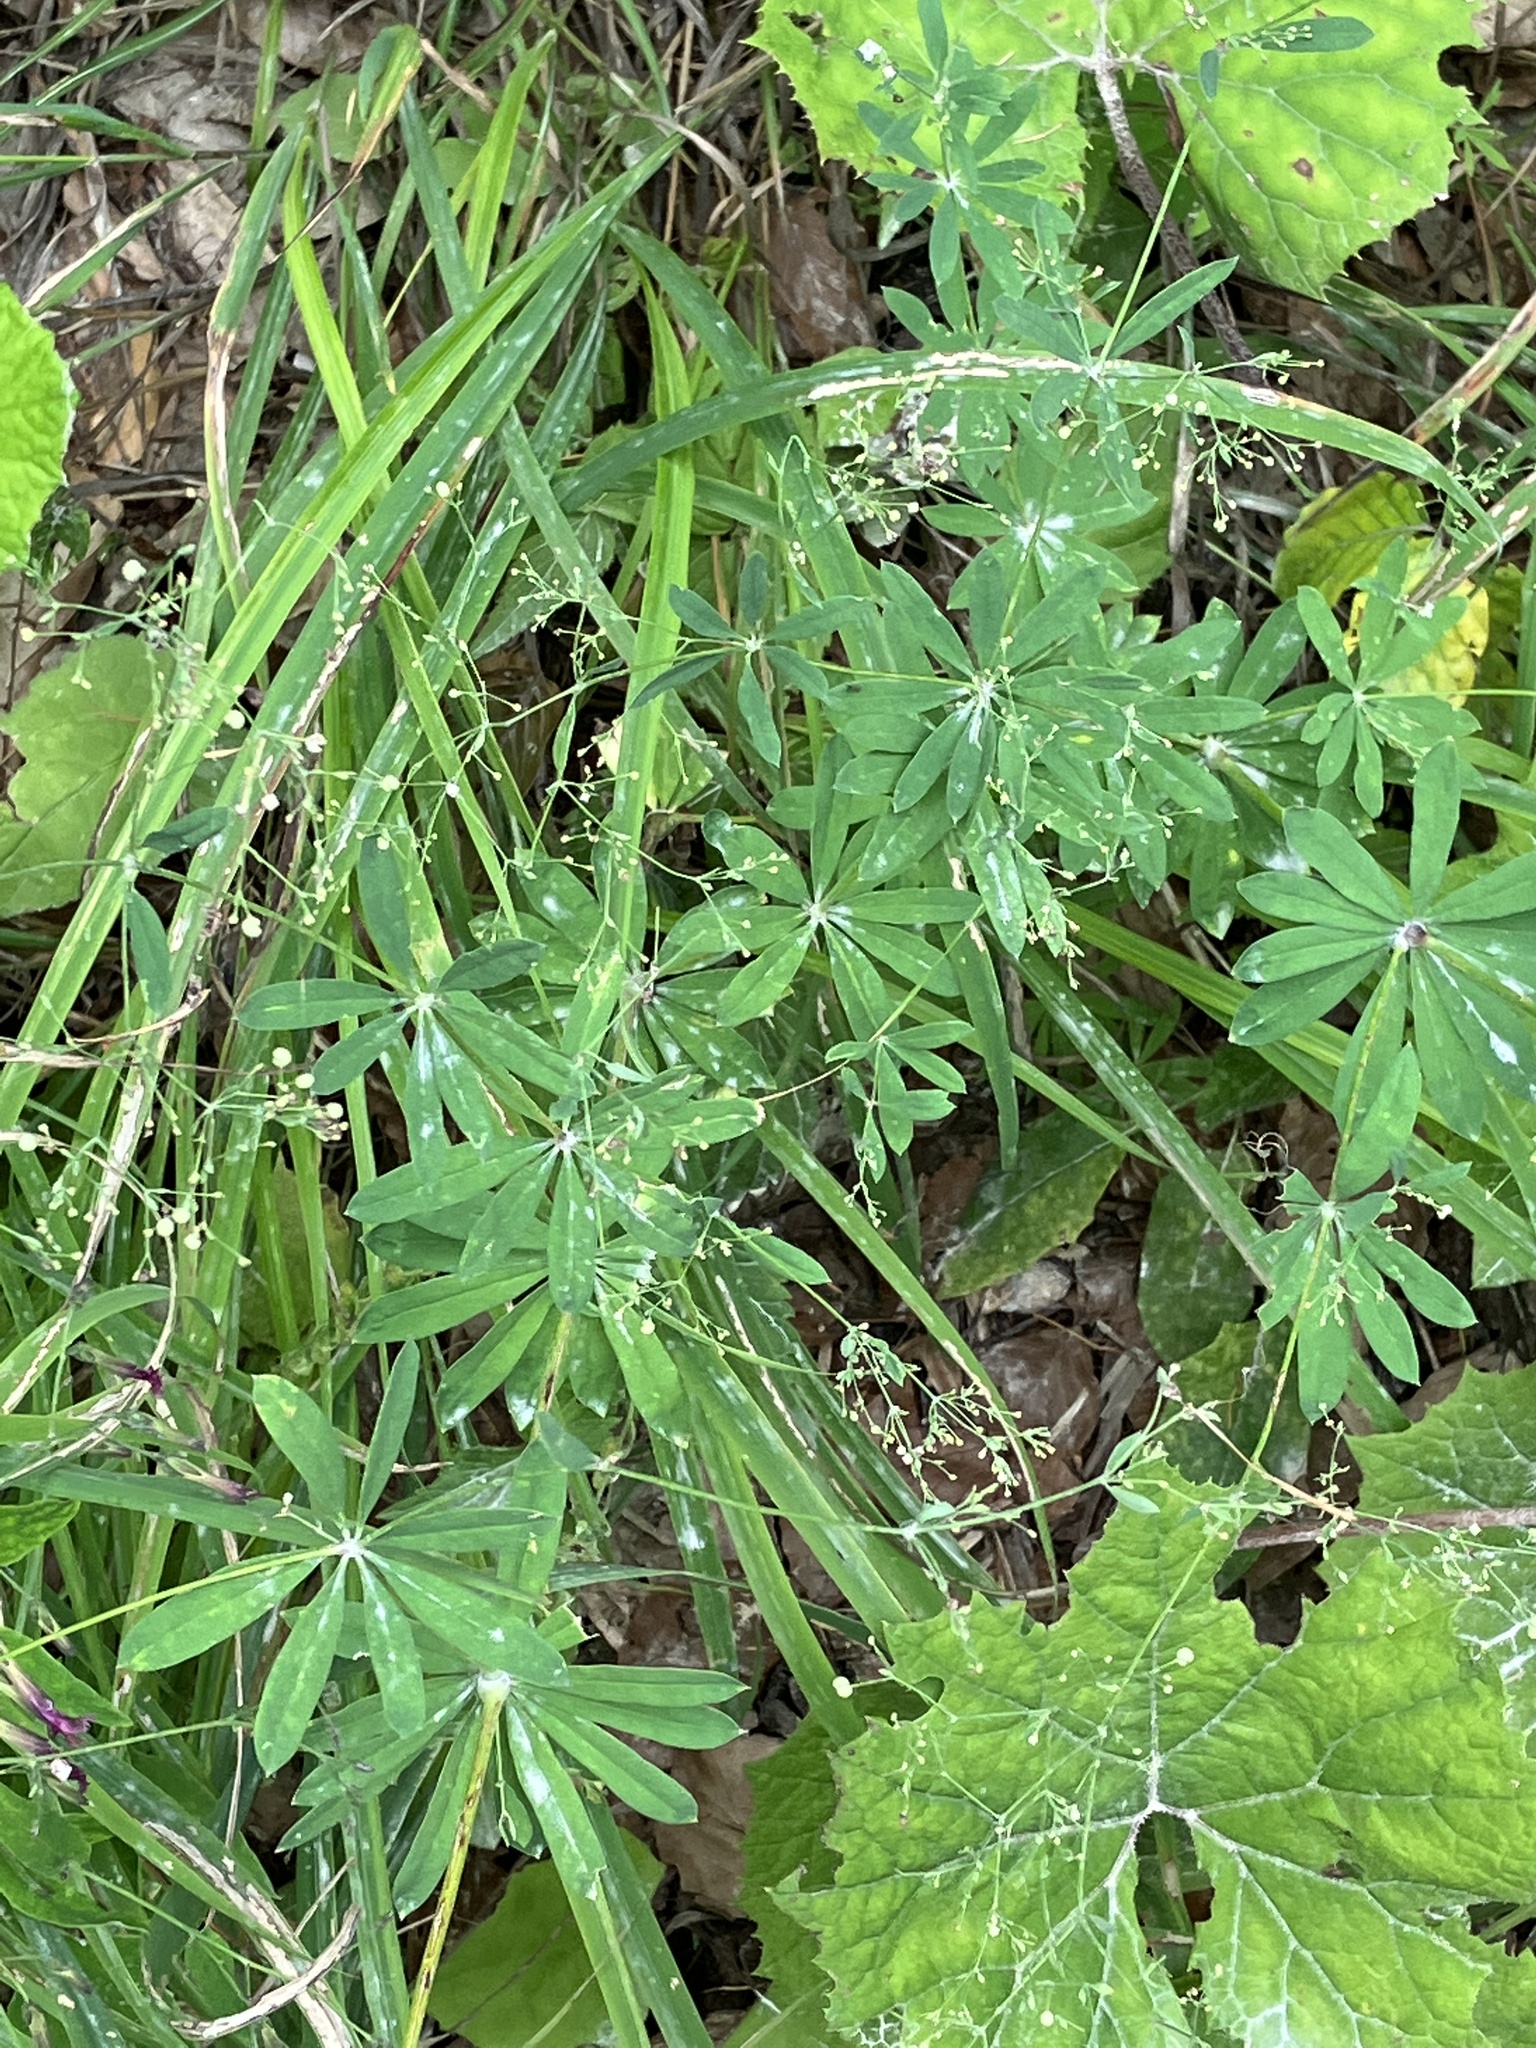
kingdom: Plantae
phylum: Tracheophyta
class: Magnoliopsida
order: Gentianales
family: Rubiaceae
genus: Galium
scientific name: Galium sylvaticum
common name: Wood bedstraw
